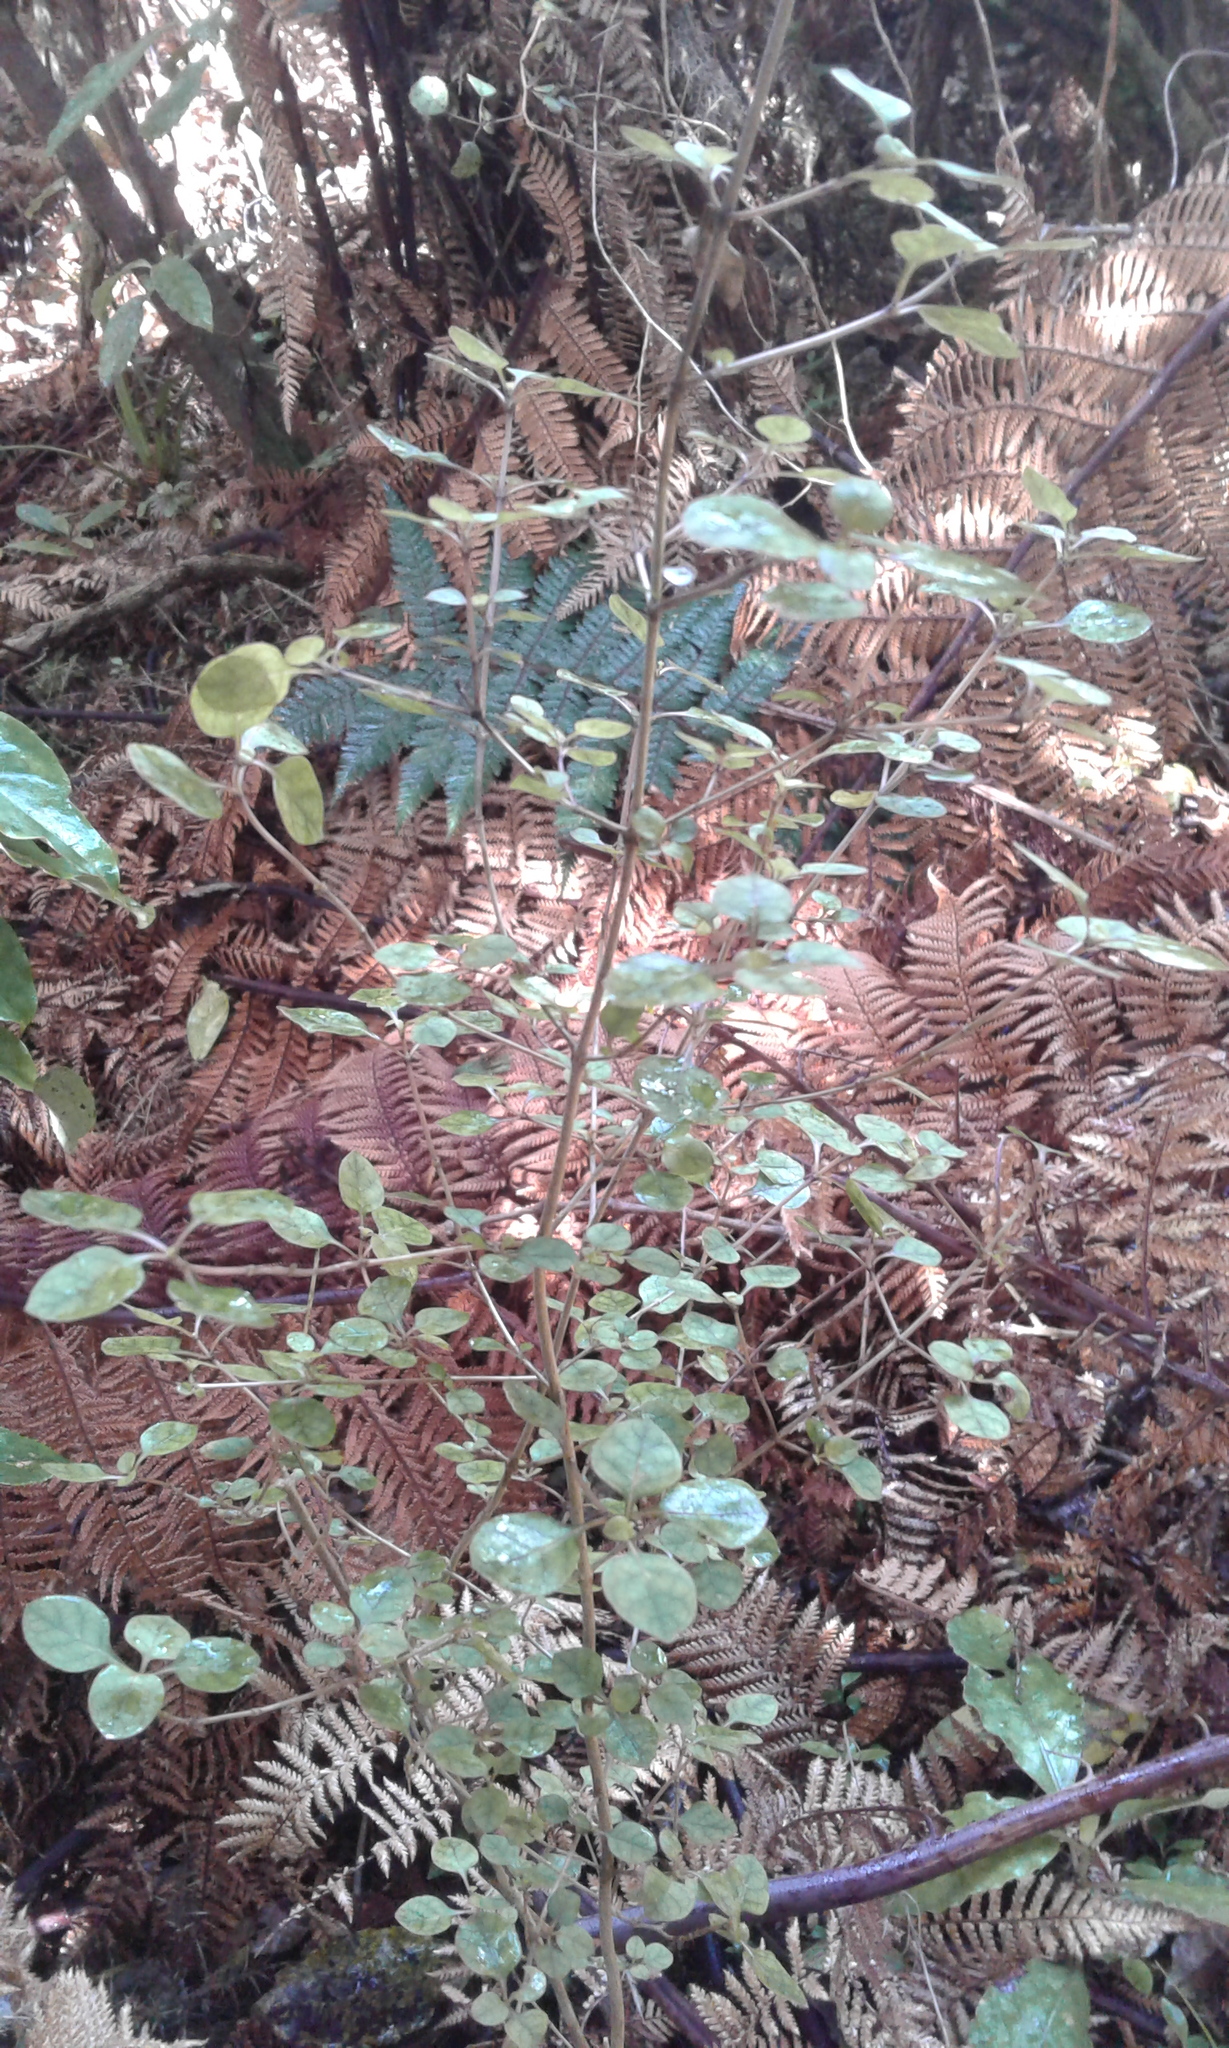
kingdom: Plantae
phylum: Tracheophyta
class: Magnoliopsida
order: Gentianales
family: Rubiaceae
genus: Coprosma
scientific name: Coprosma
